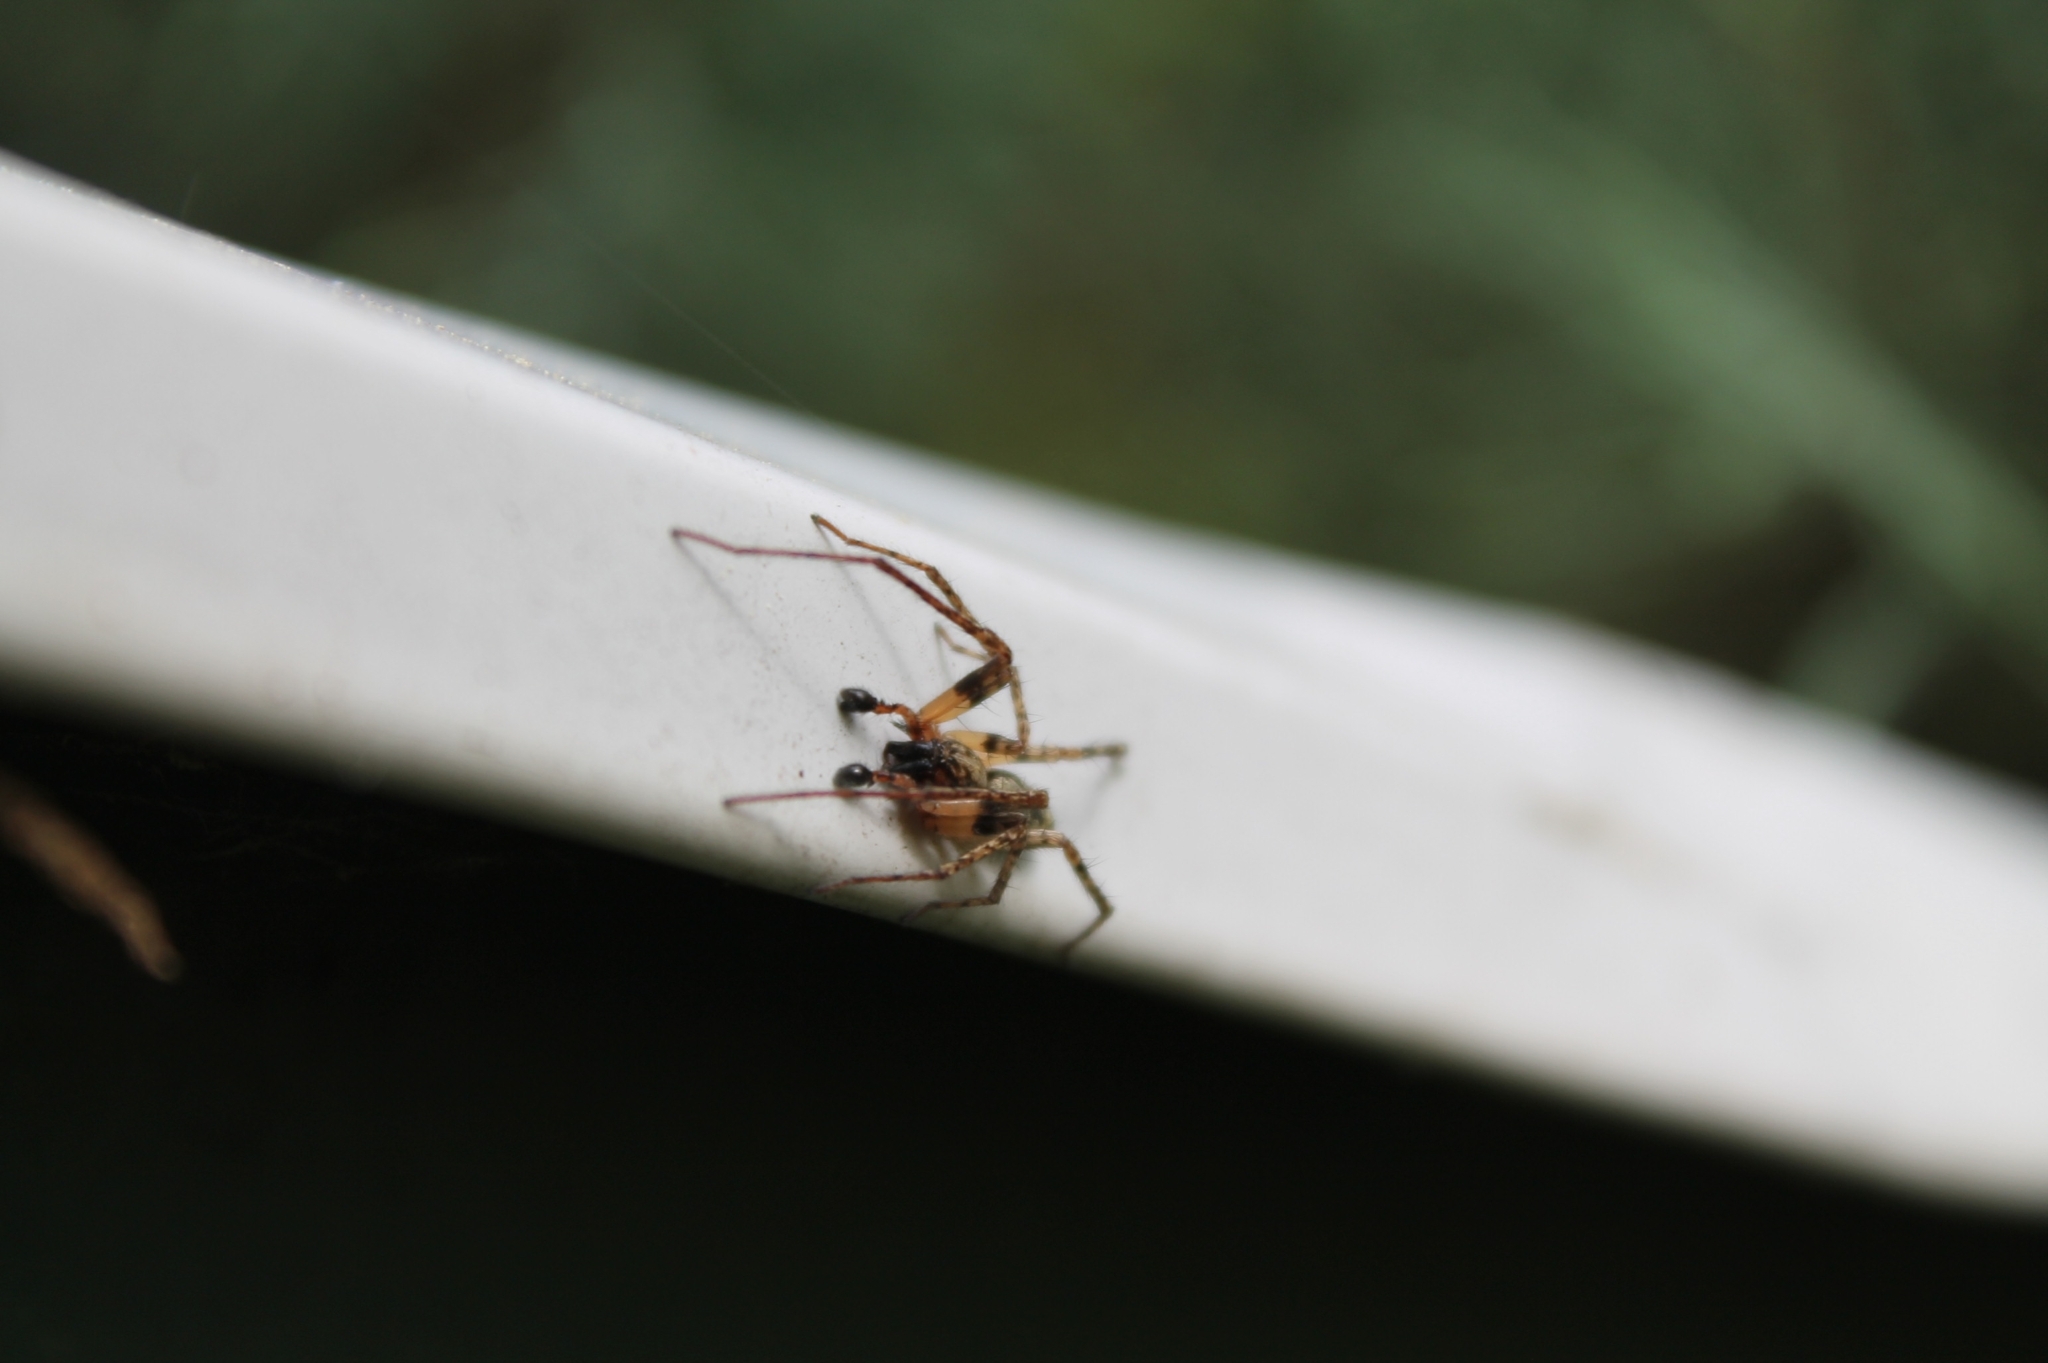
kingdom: Animalia
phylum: Arthropoda
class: Arachnida
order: Araneae
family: Anyphaenidae
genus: Anyphaena
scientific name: Anyphaena accentuata
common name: Buzzing spider
